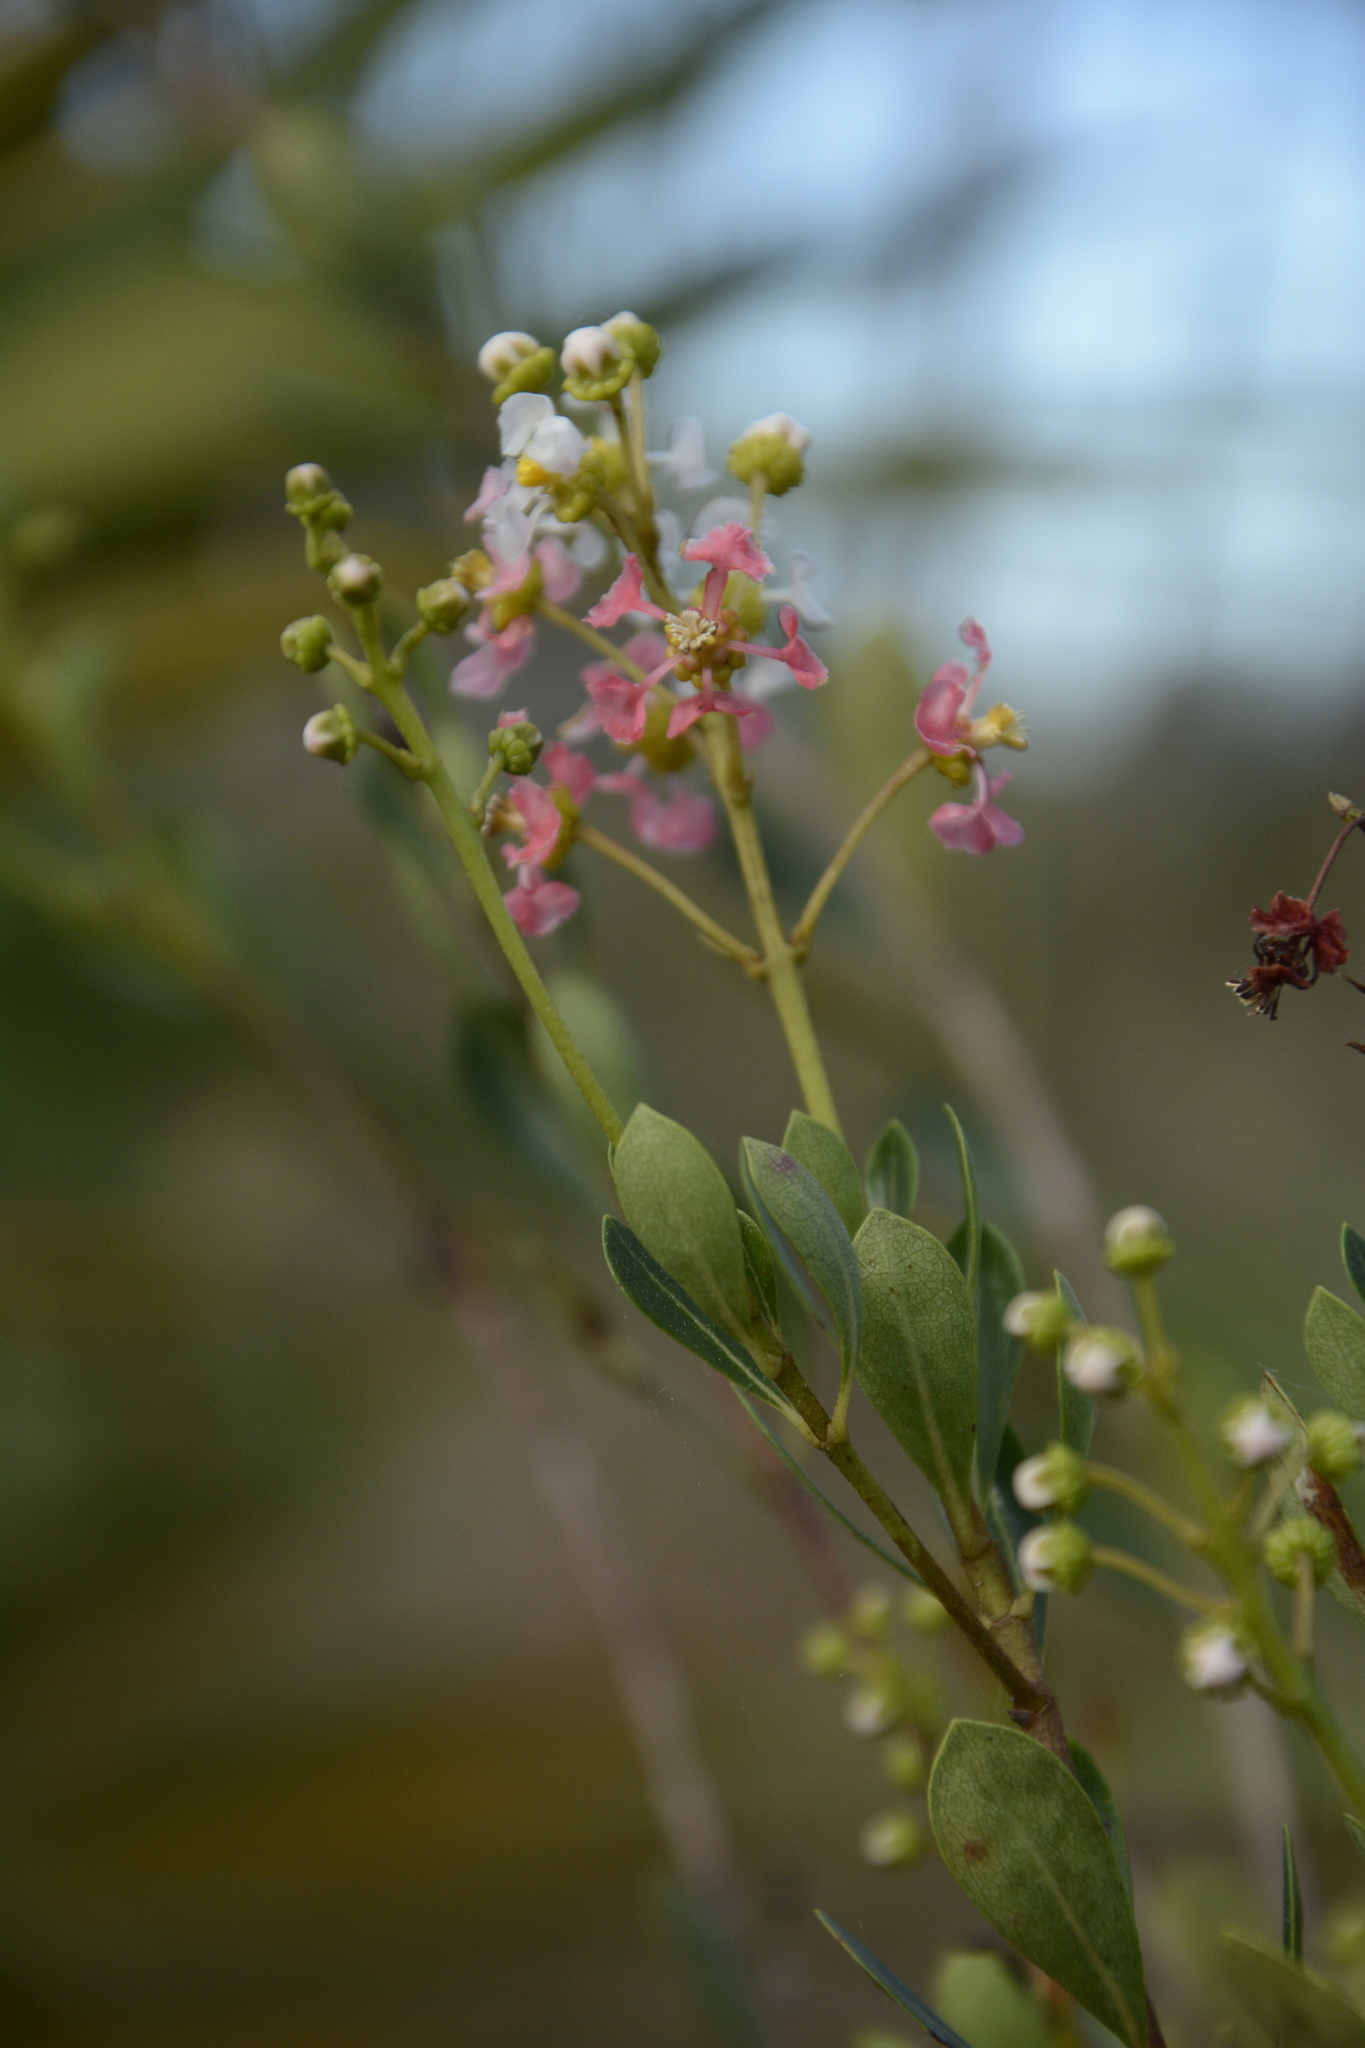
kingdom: Plantae
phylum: Tracheophyta
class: Magnoliopsida
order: Malpighiales
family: Malpighiaceae
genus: Byrsonima
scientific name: Byrsonima lucida
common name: Clam-cherry
